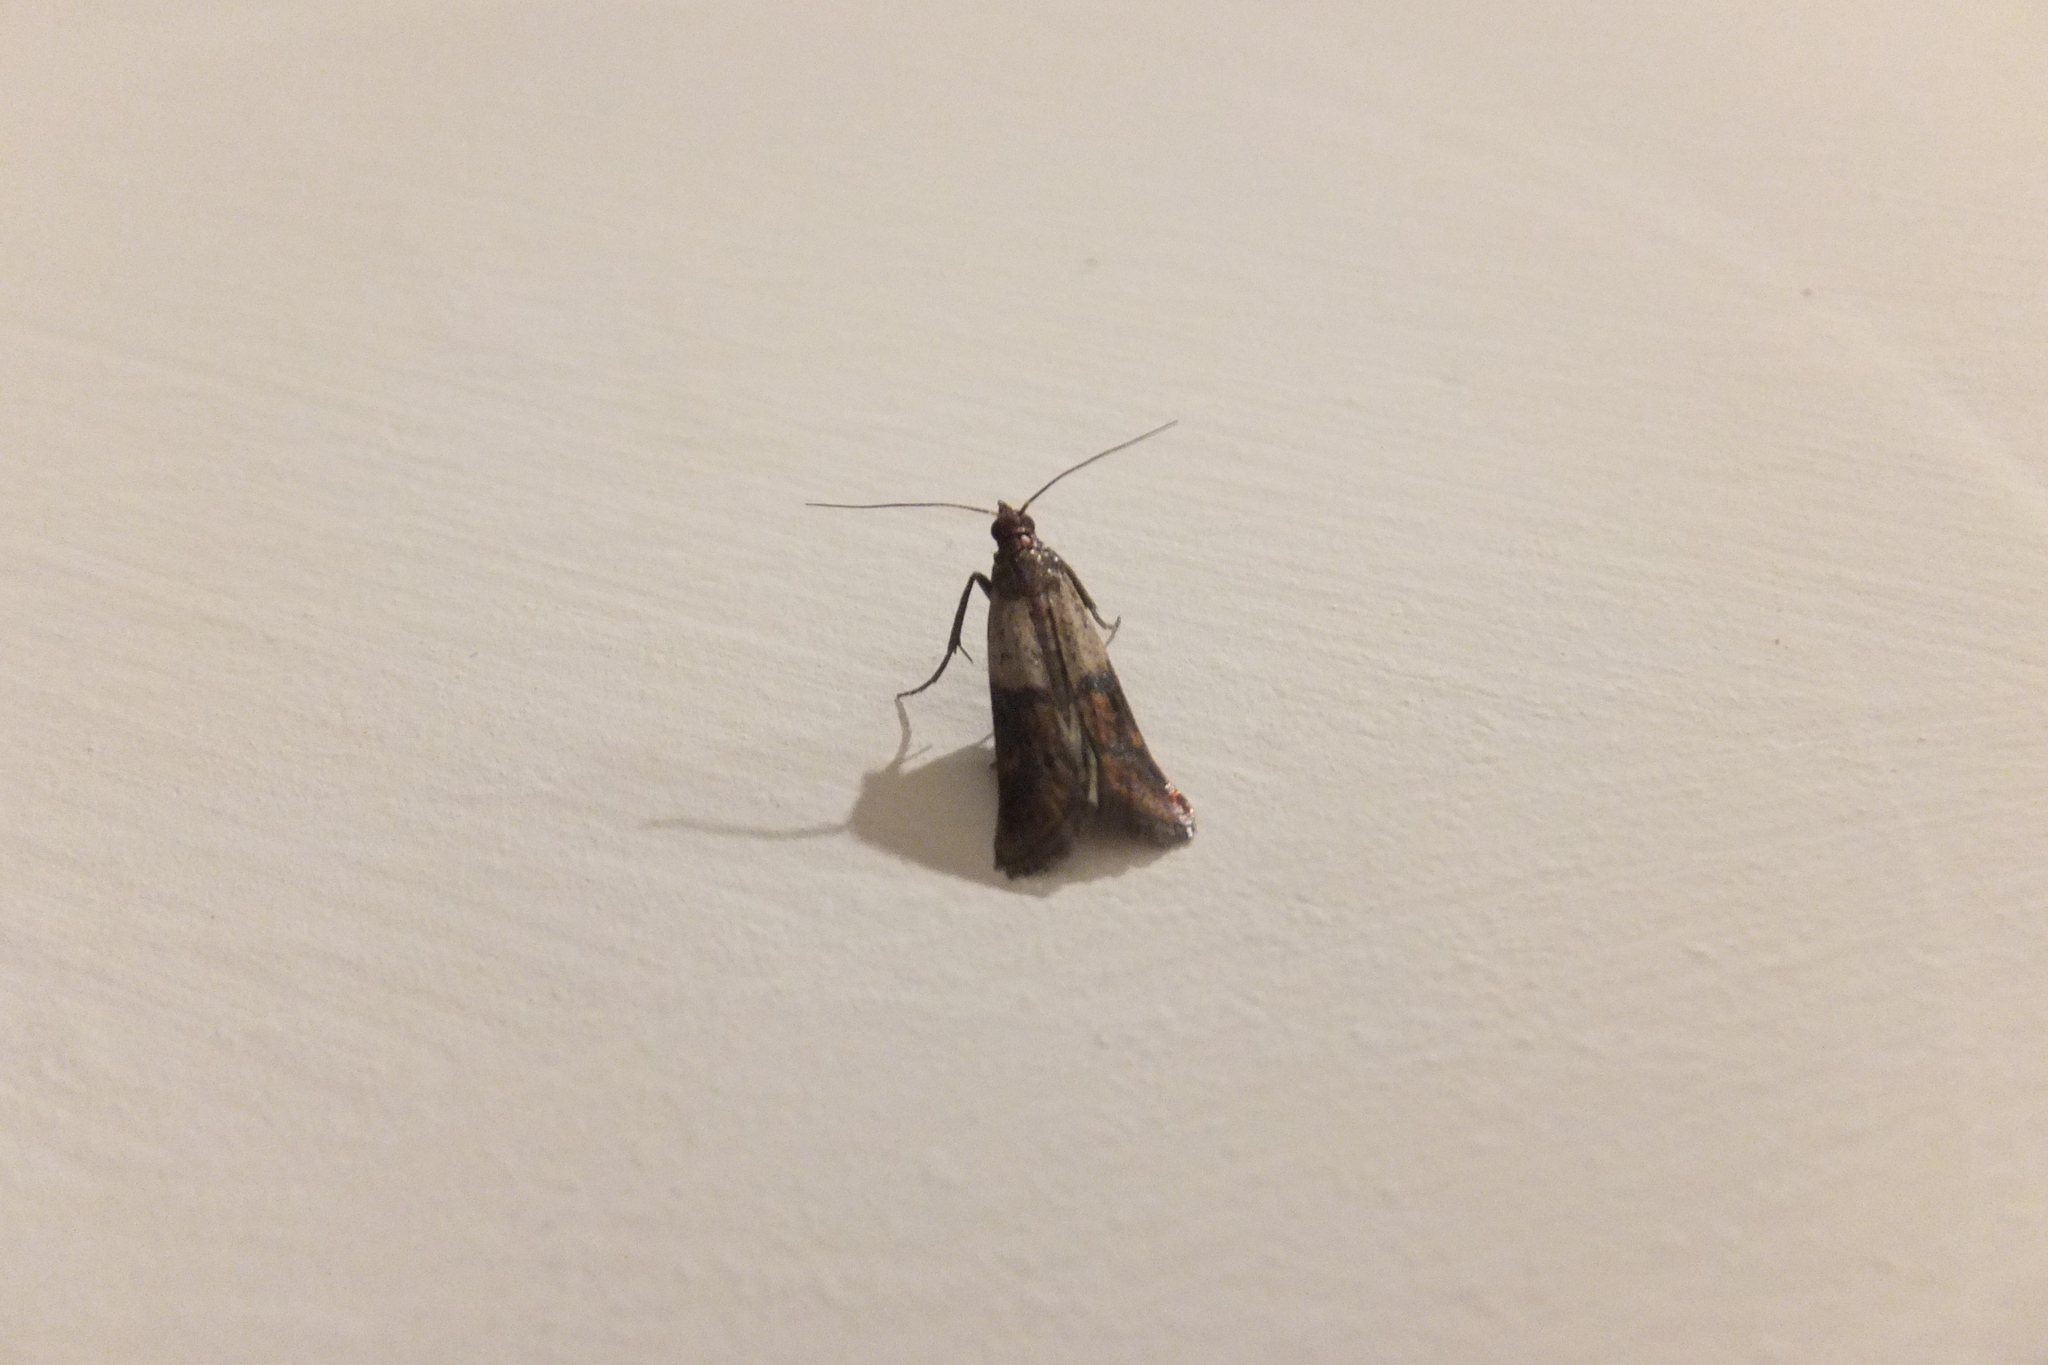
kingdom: Animalia
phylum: Arthropoda
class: Insecta
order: Lepidoptera
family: Pyralidae
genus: Plodia
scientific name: Plodia interpunctella
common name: Indian meal moth
